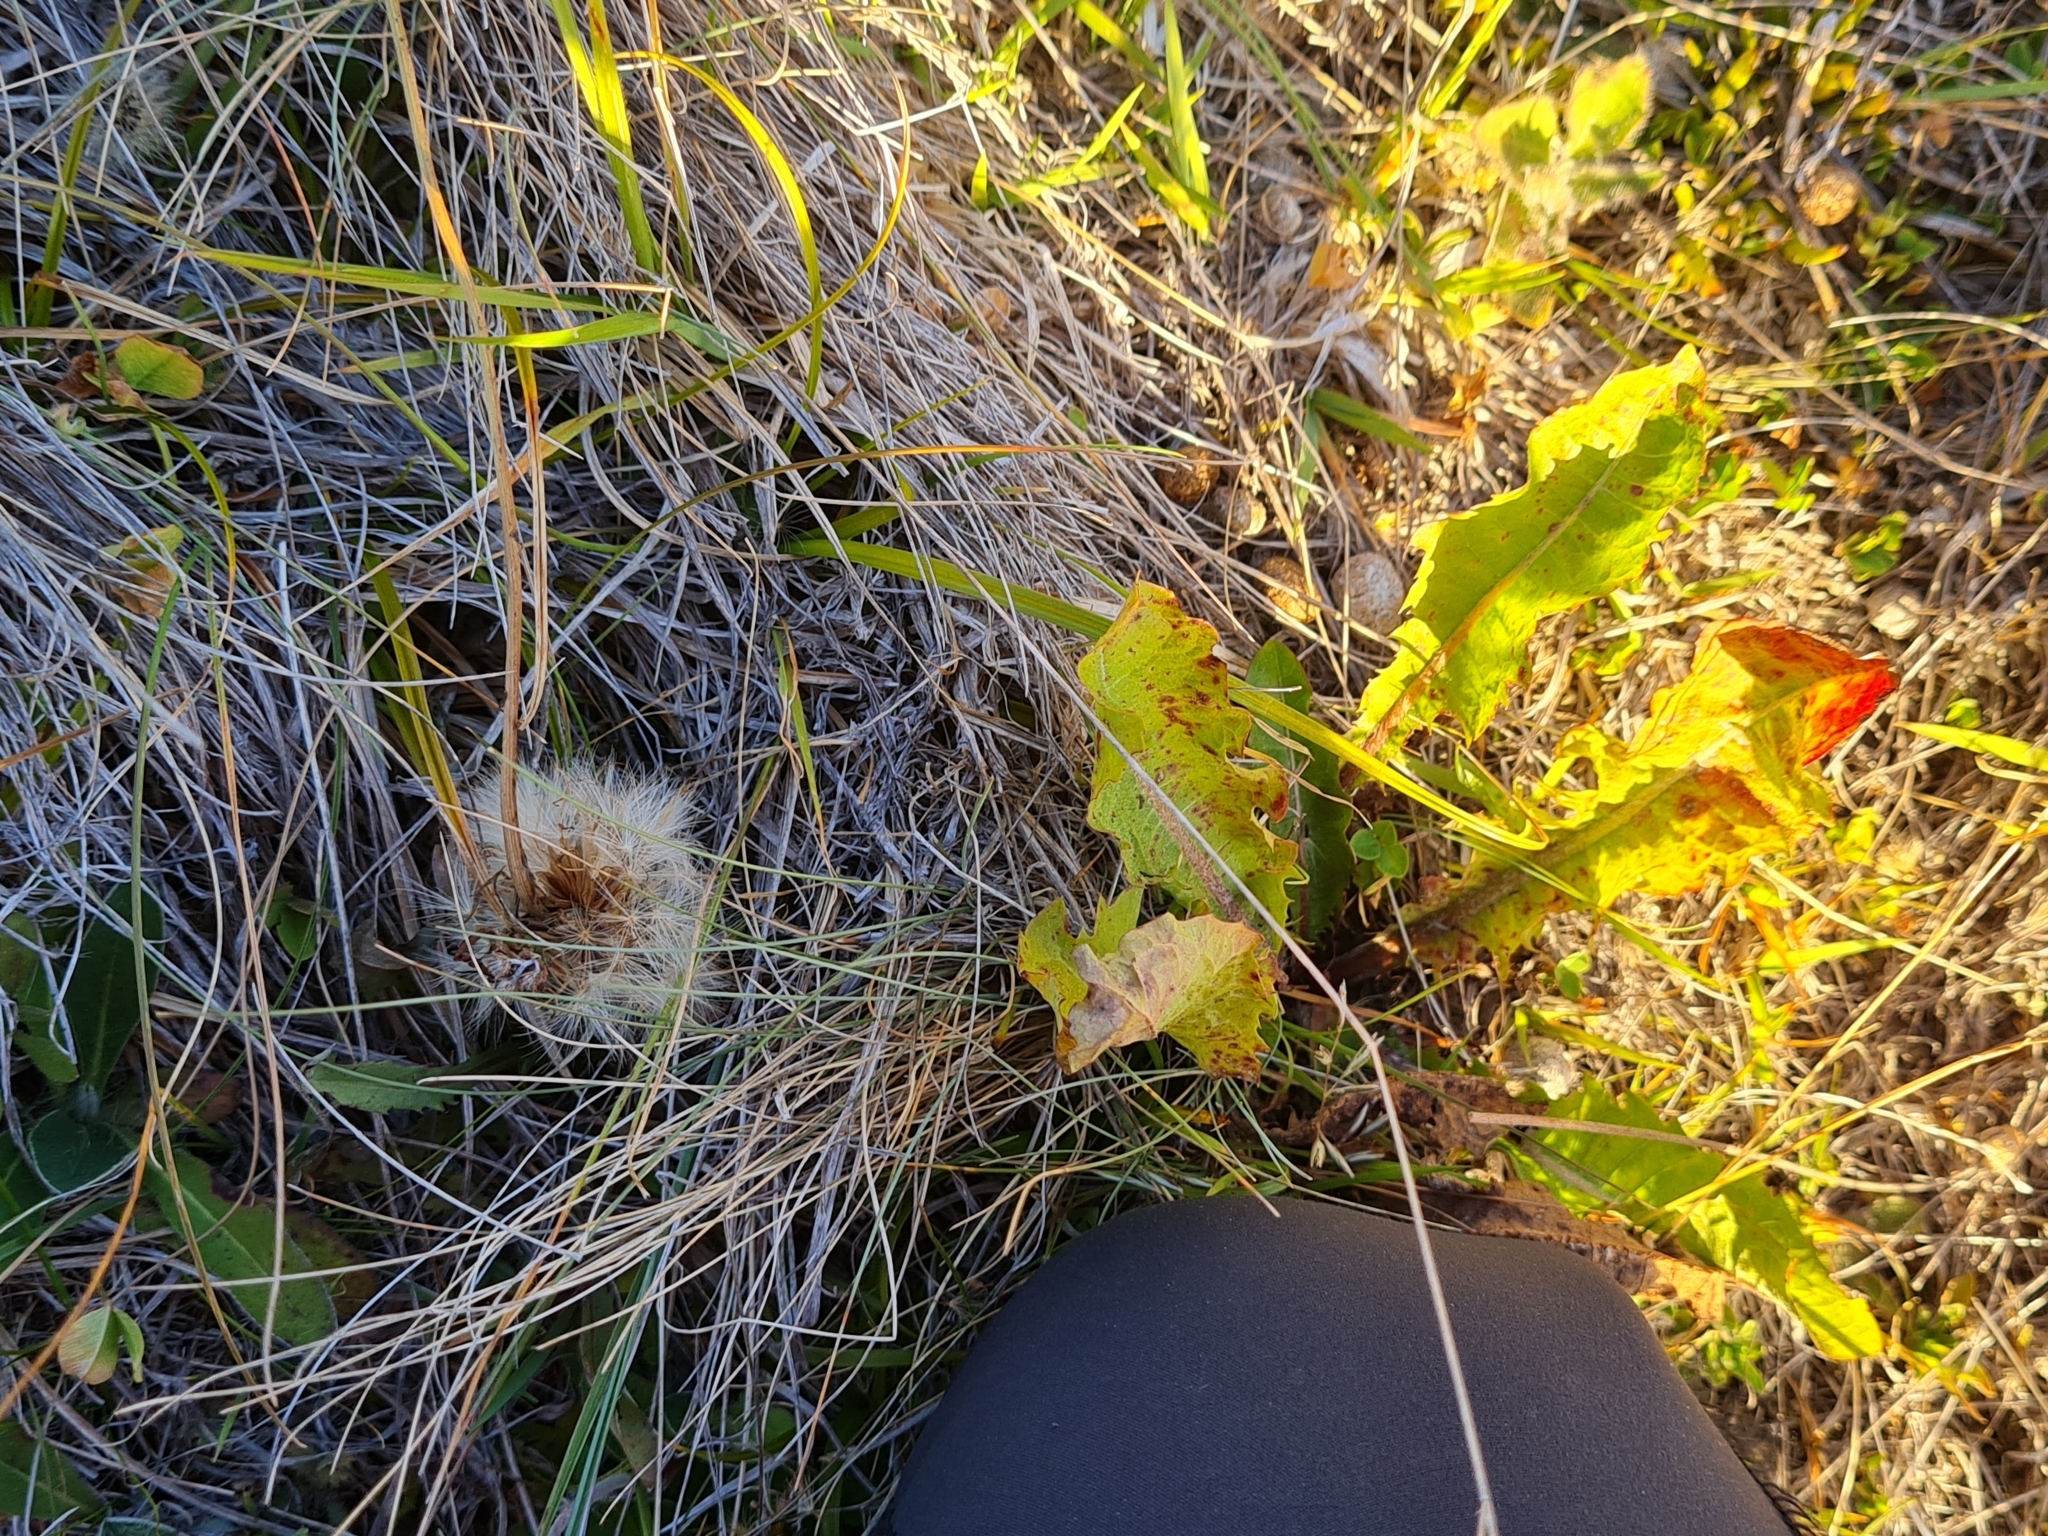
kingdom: Plantae
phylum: Tracheophyta
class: Magnoliopsida
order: Asterales
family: Asteraceae
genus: Taraxacum
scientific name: Taraxacum officinale
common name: Common dandelion
